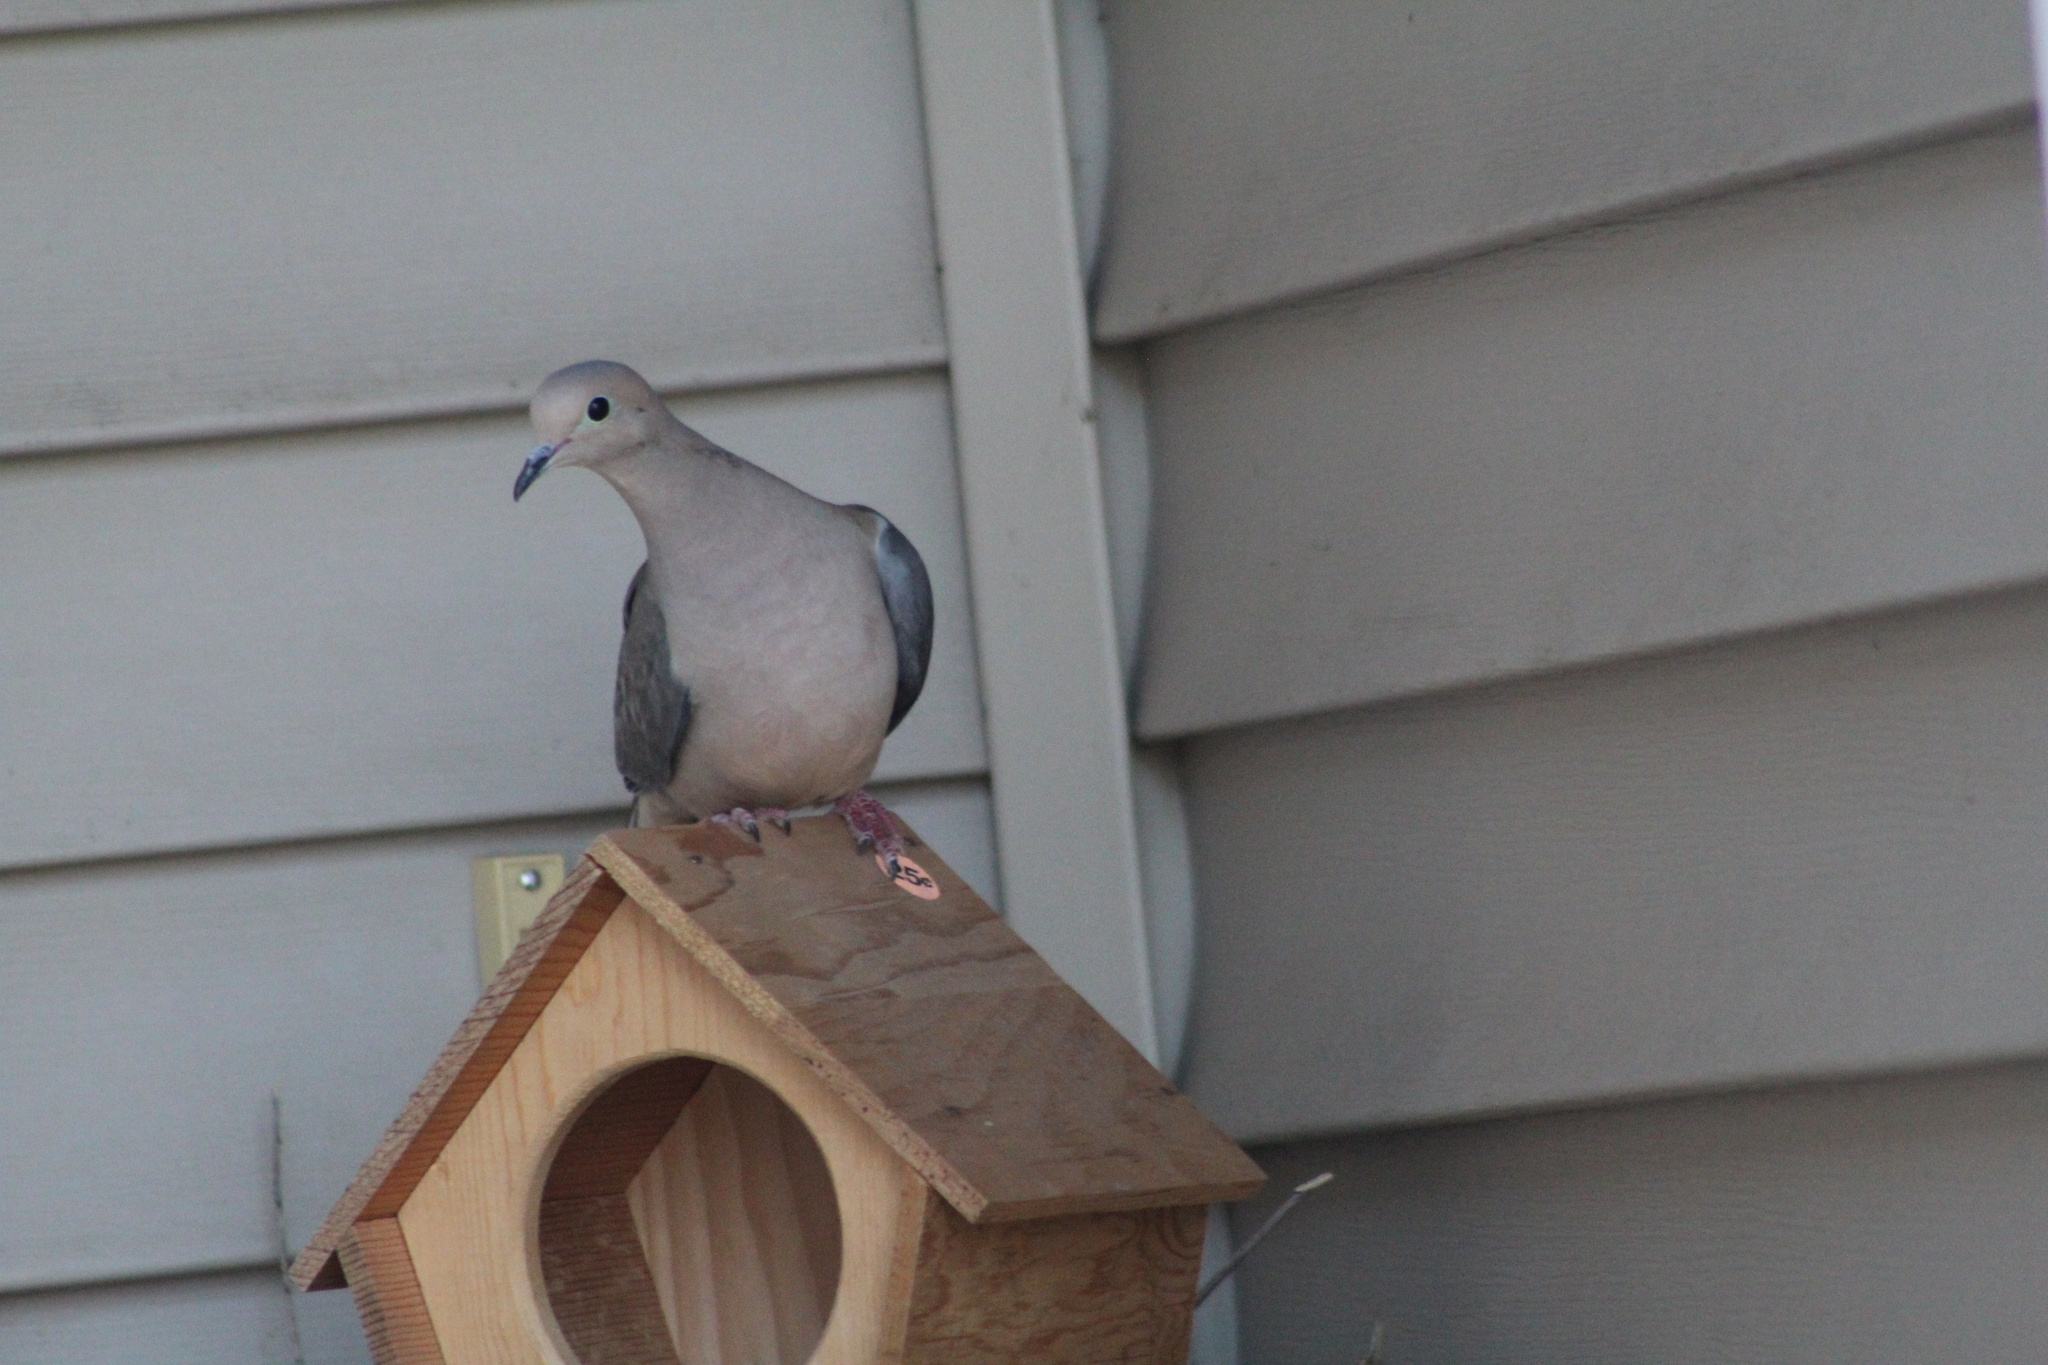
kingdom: Animalia
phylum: Chordata
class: Aves
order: Columbiformes
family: Columbidae
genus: Zenaida
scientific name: Zenaida macroura
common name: Mourning dove
